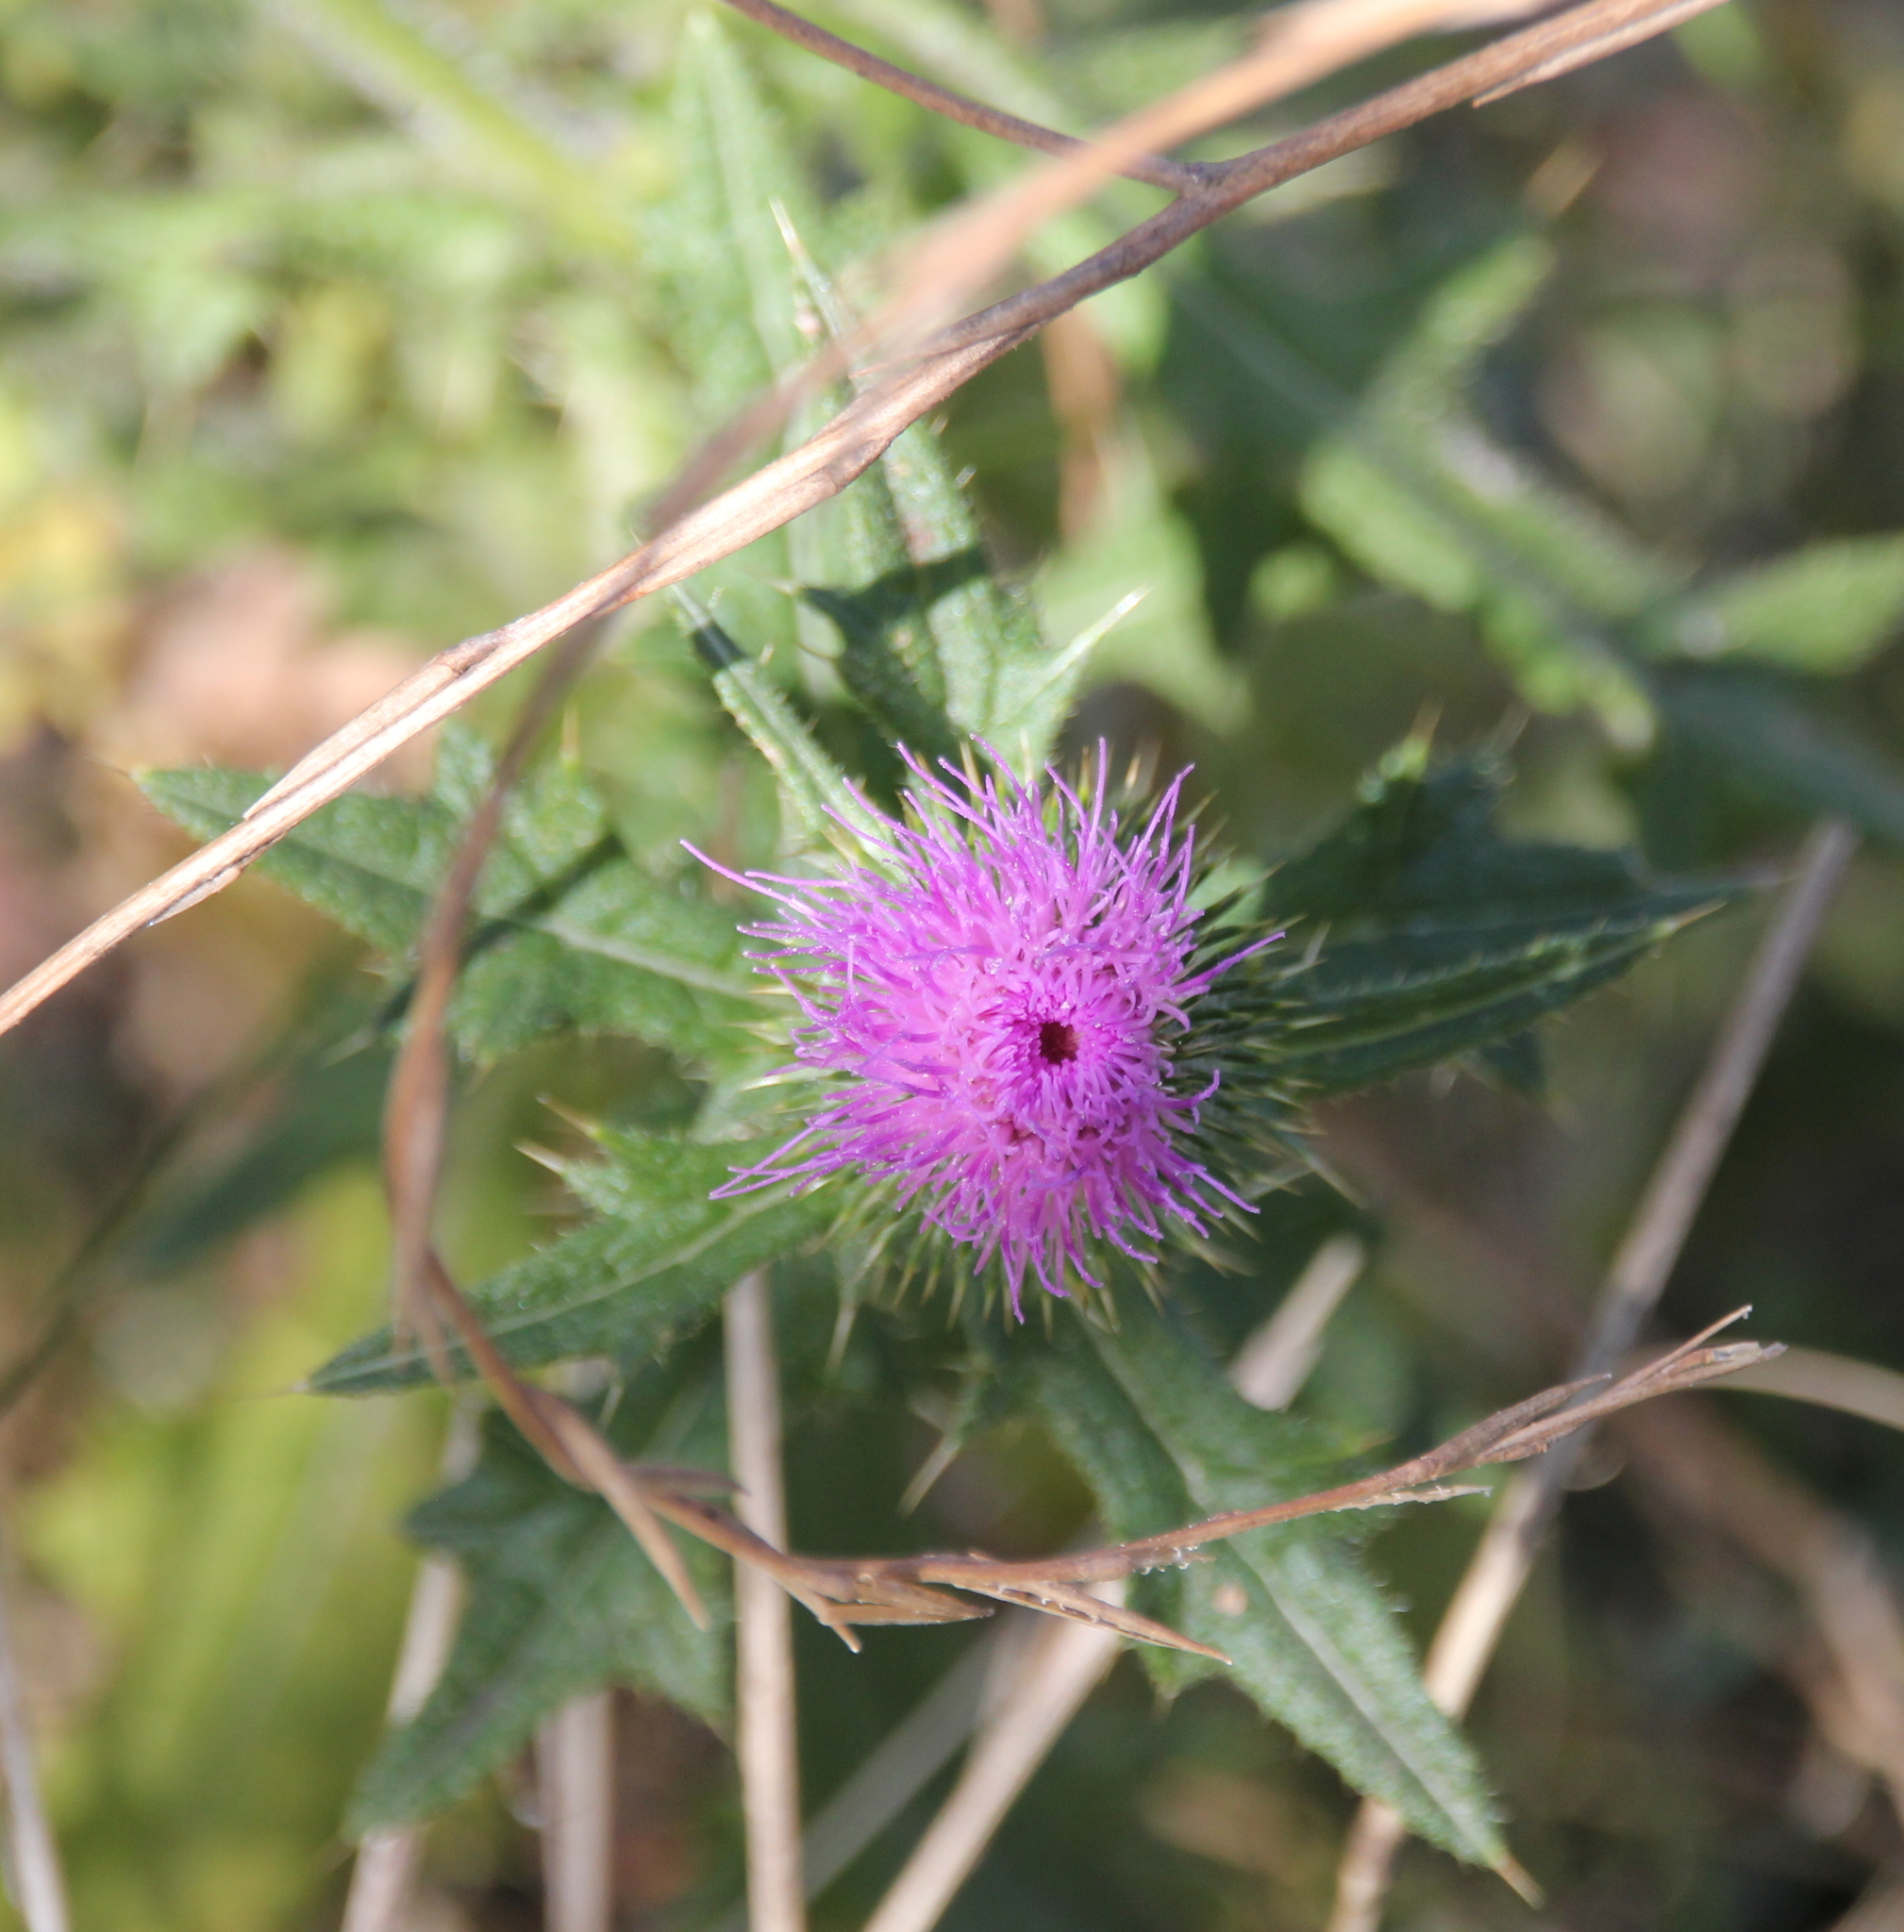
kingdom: Plantae
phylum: Tracheophyta
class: Magnoliopsida
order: Asterales
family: Asteraceae
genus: Cirsium
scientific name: Cirsium vulgare
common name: Bull thistle
